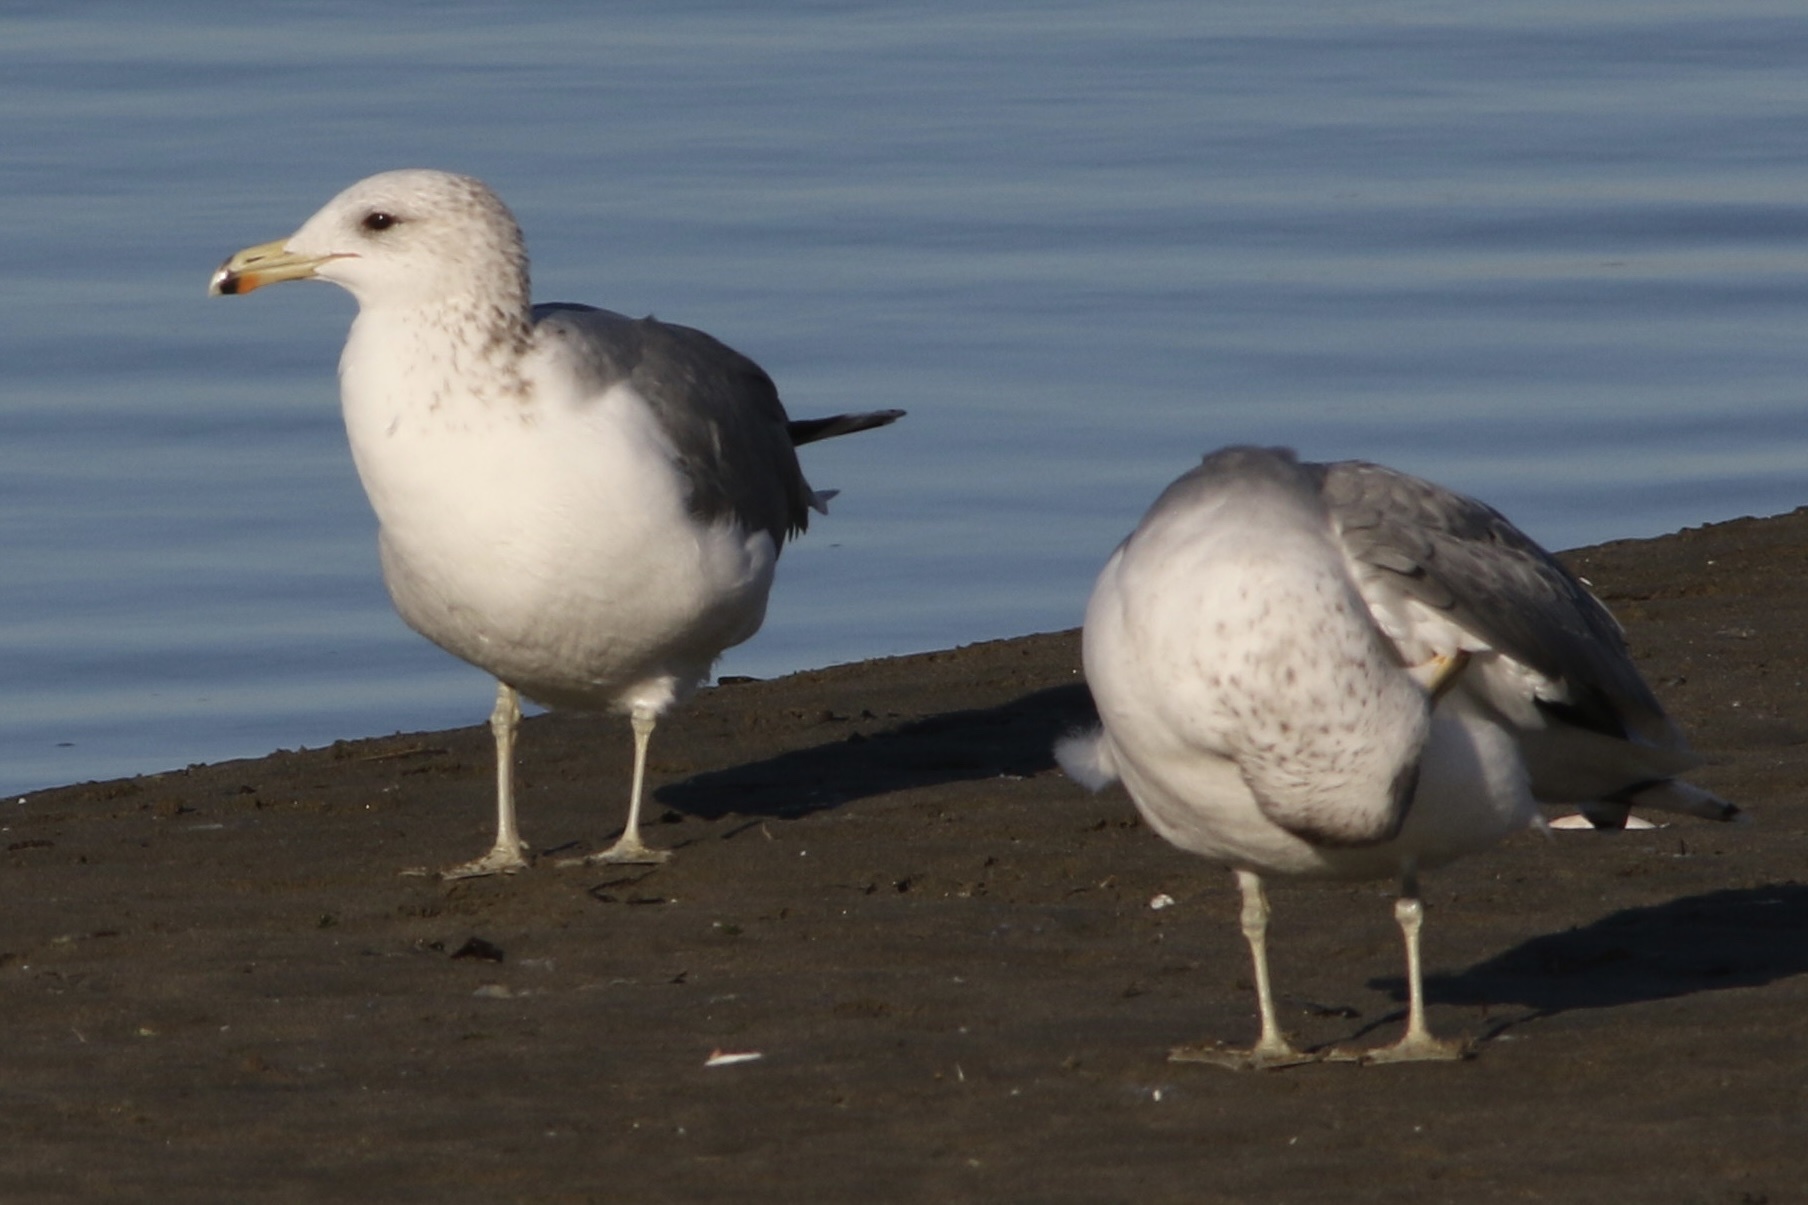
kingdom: Animalia
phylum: Chordata
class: Aves
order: Charadriiformes
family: Laridae
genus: Larus
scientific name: Larus californicus
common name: California gull
